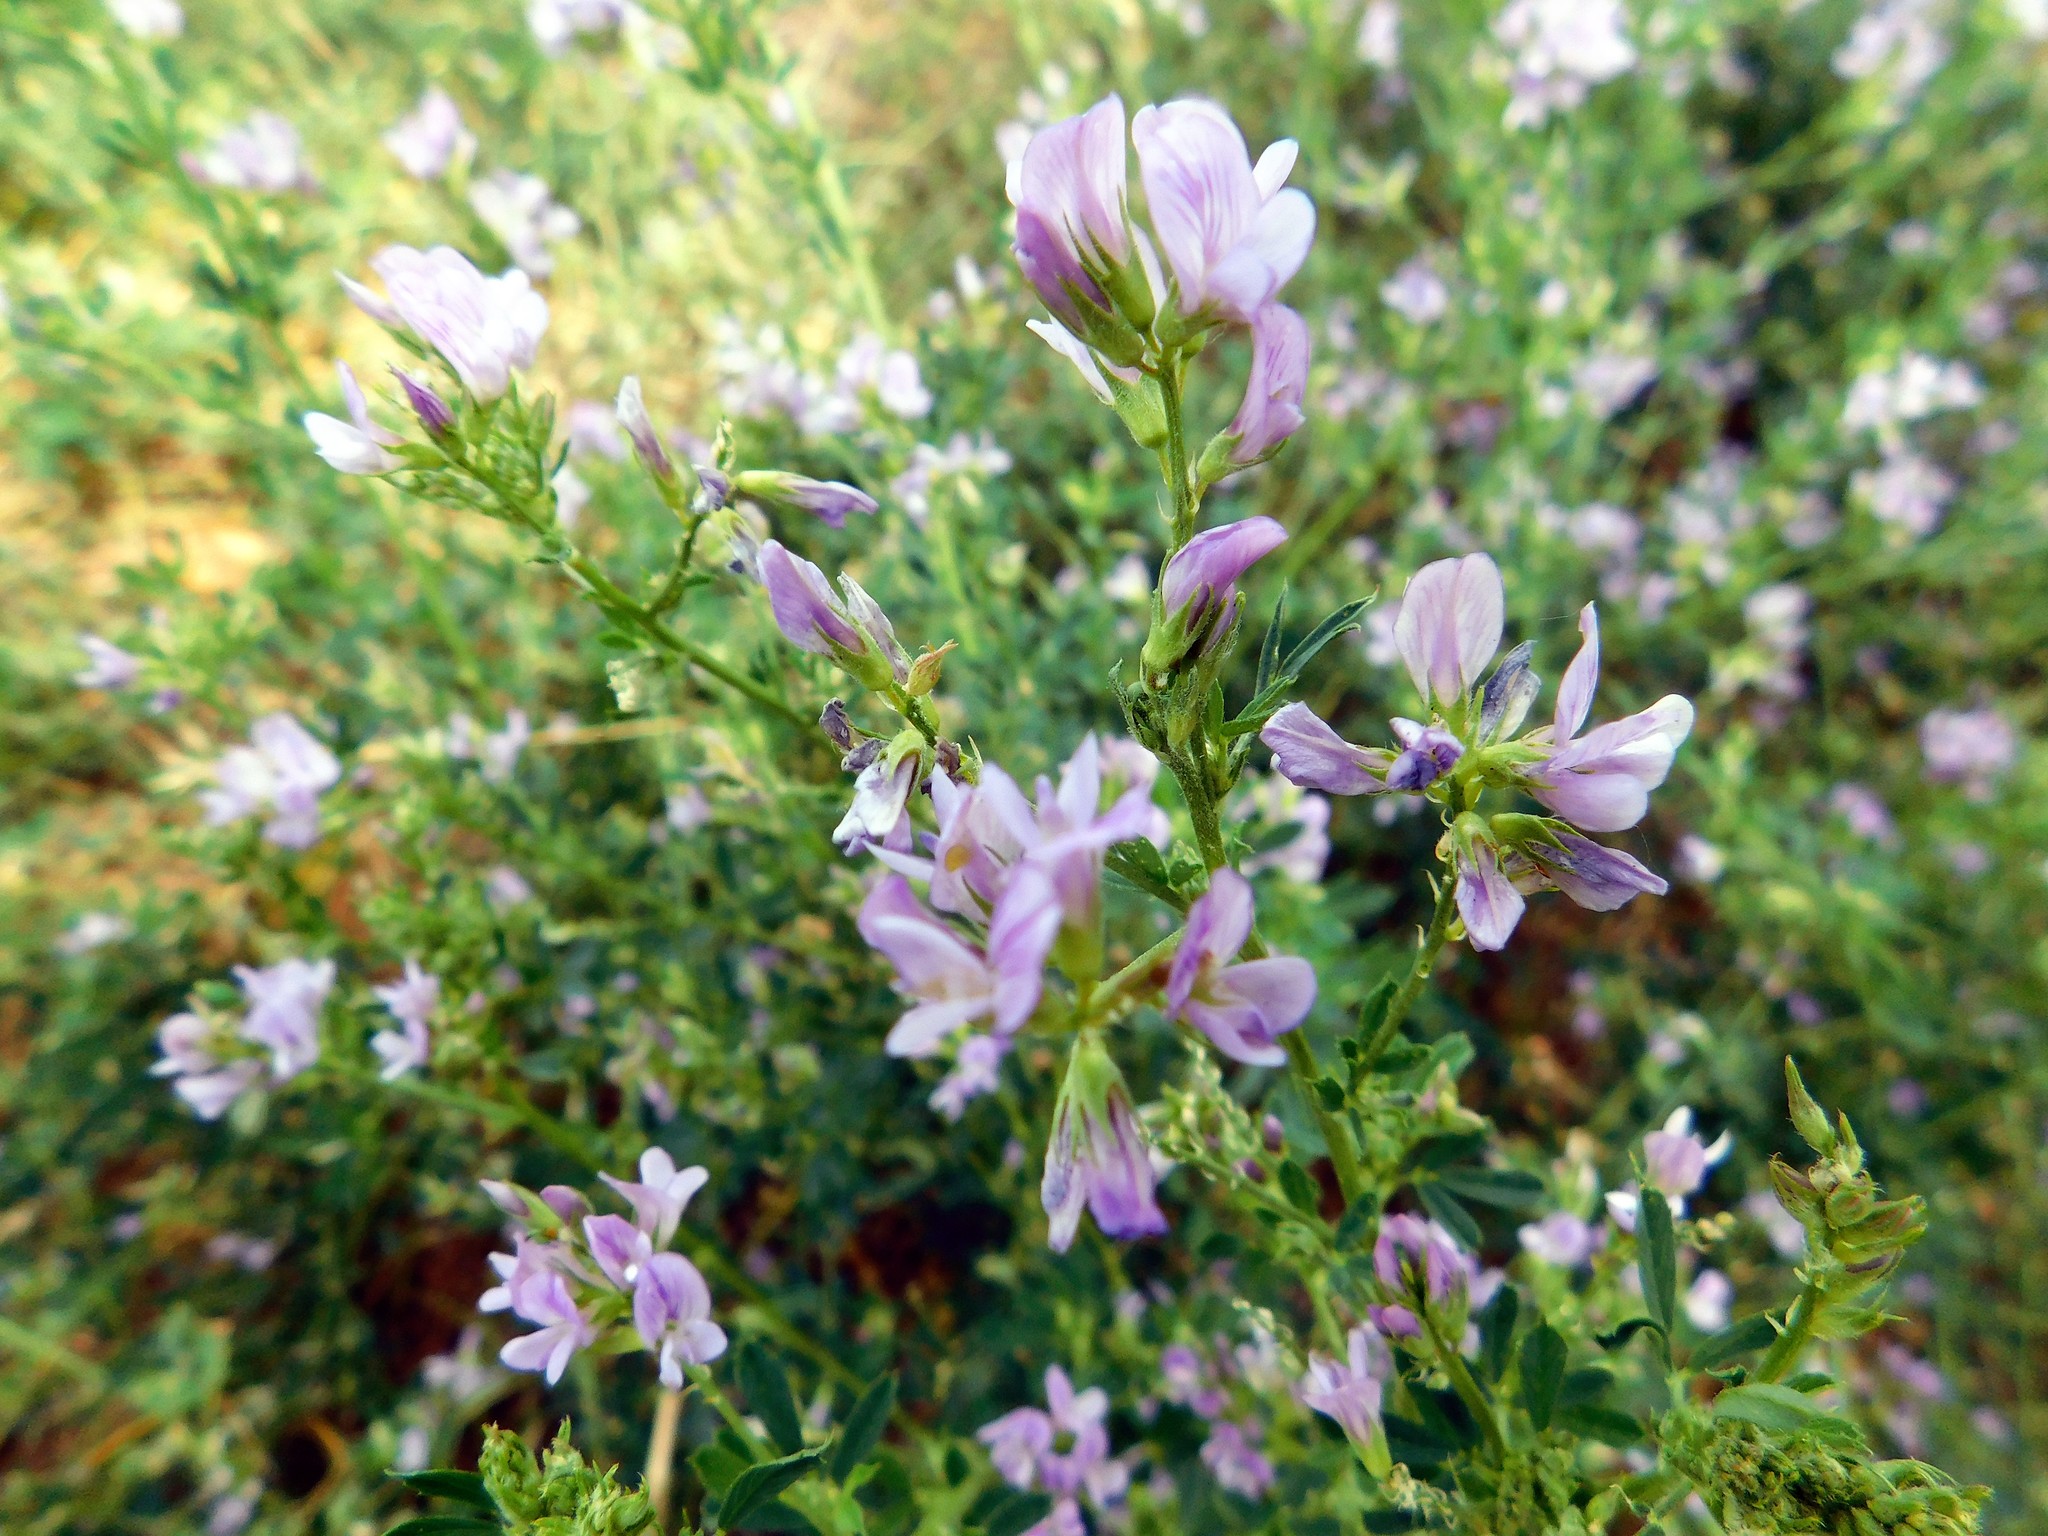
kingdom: Plantae
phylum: Tracheophyta
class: Magnoliopsida
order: Fabales
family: Fabaceae
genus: Medicago
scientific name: Medicago sativa
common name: Alfalfa
